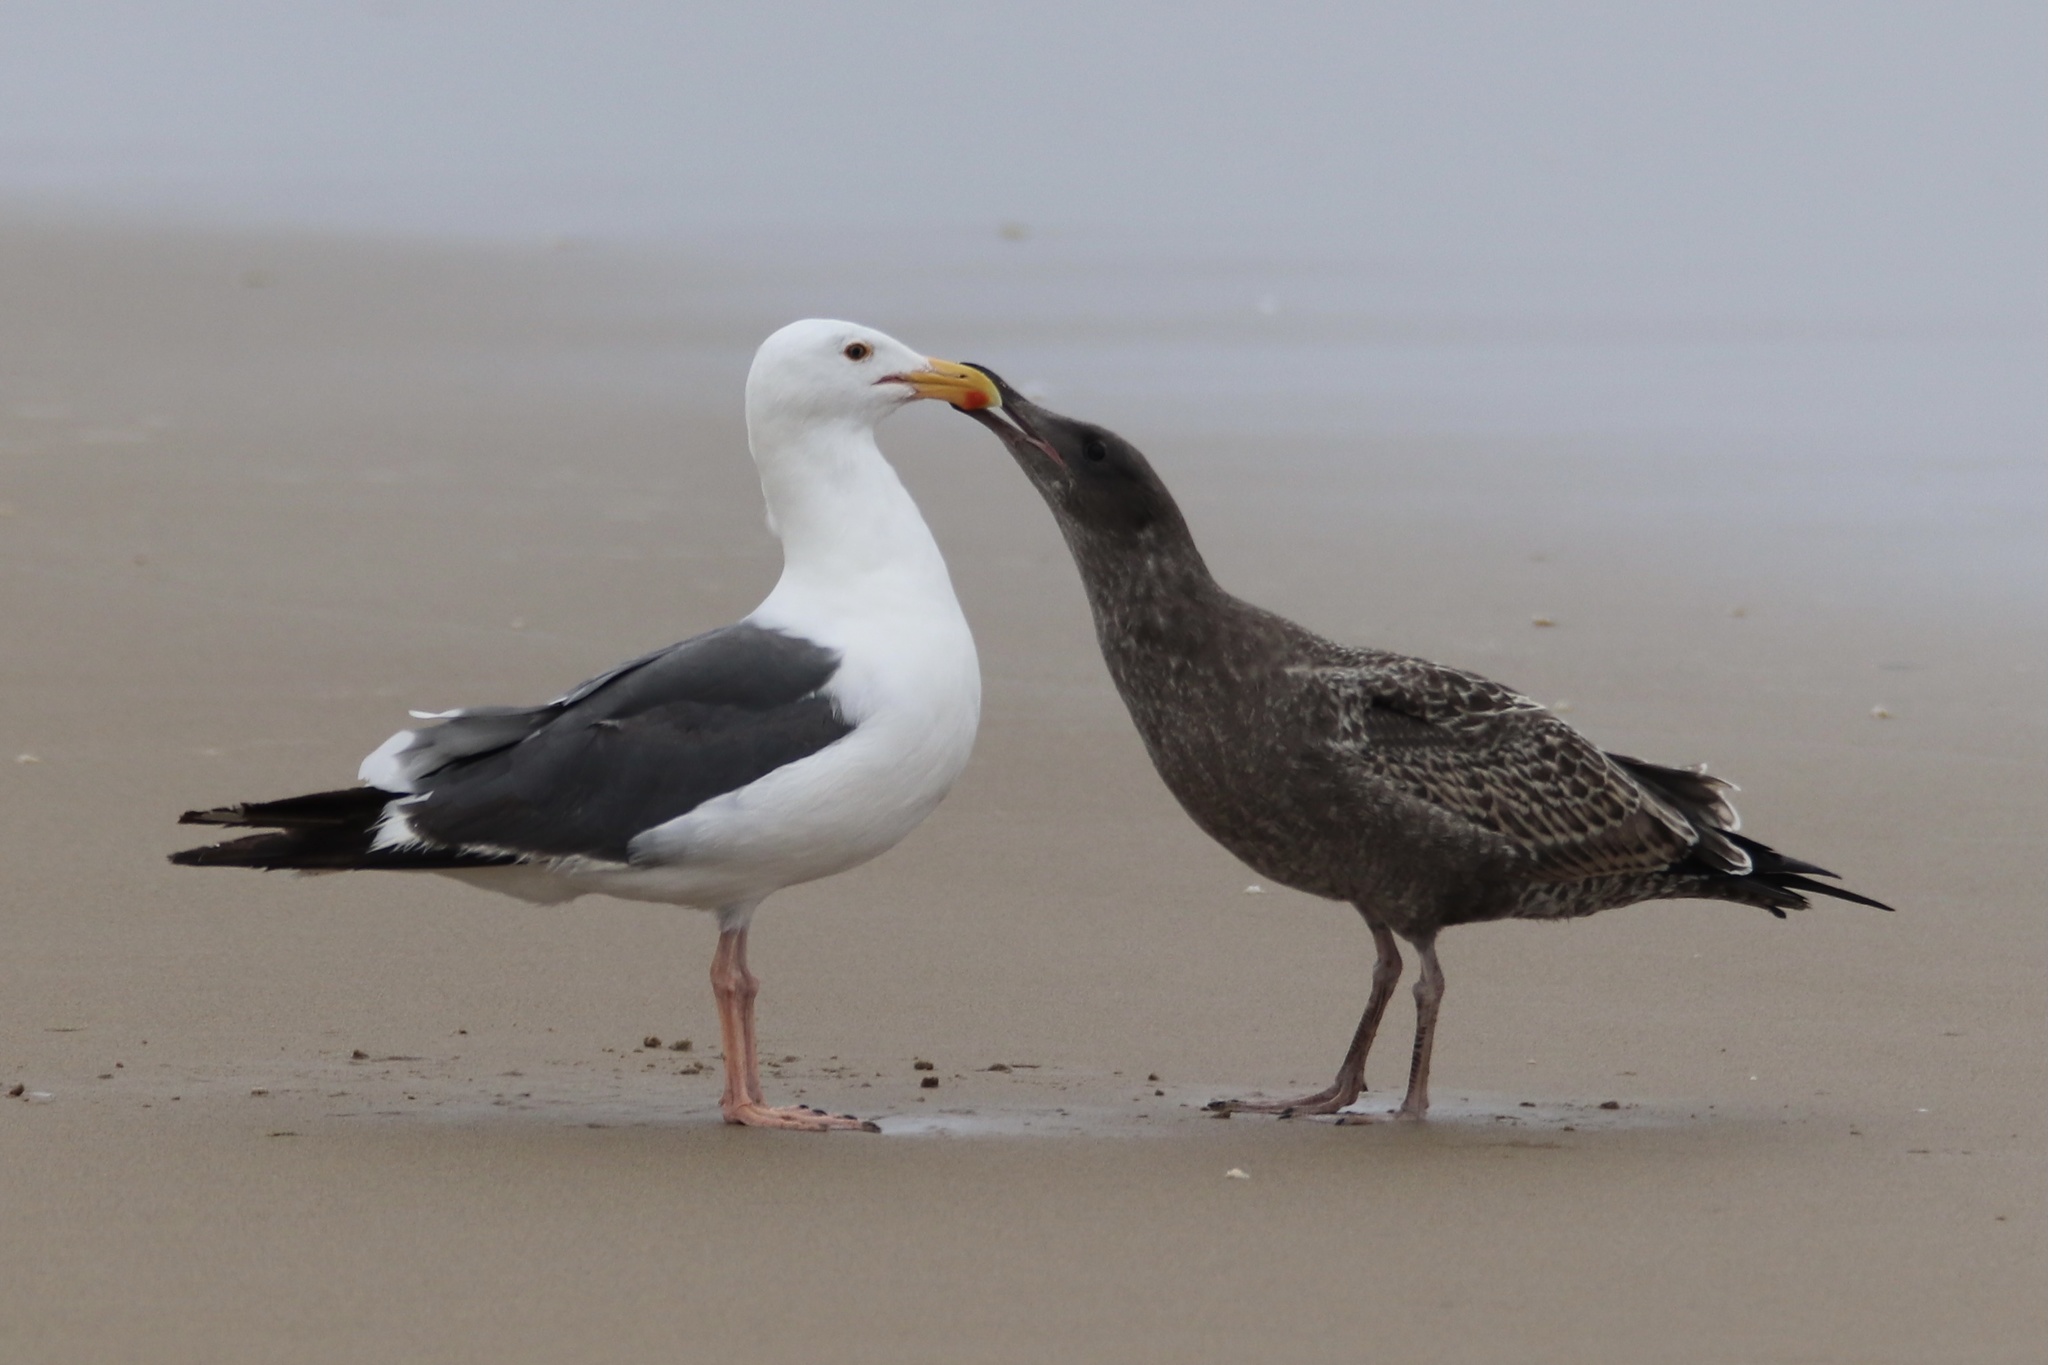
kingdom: Animalia
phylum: Chordata
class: Aves
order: Charadriiformes
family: Laridae
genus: Larus
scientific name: Larus occidentalis
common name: Western gull
